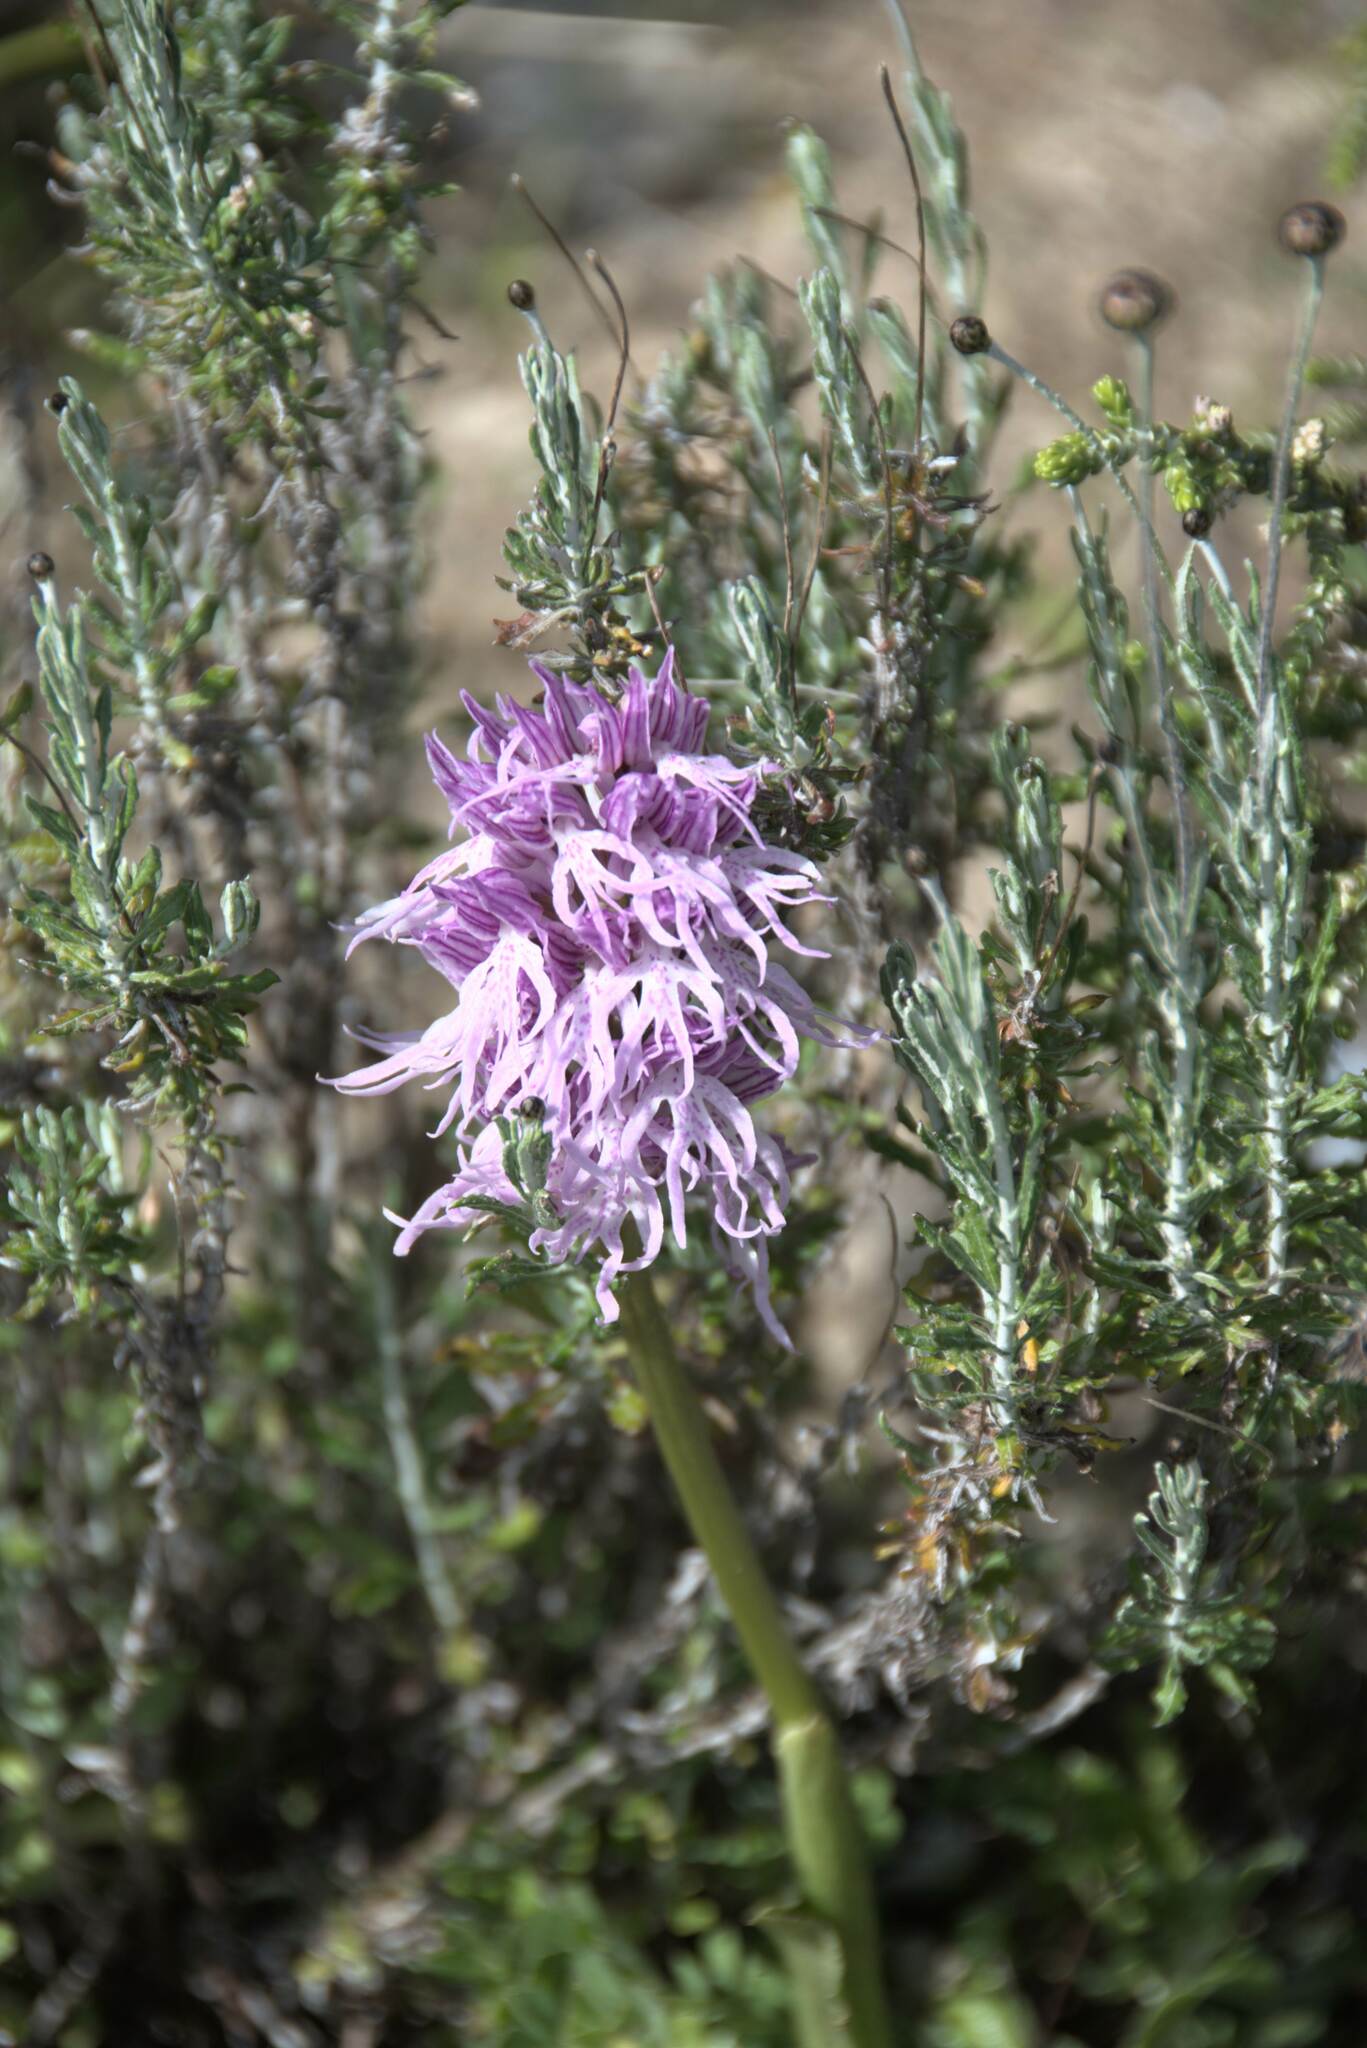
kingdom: Plantae
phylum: Tracheophyta
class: Liliopsida
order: Asparagales
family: Orchidaceae
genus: Orchis
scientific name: Orchis italica
